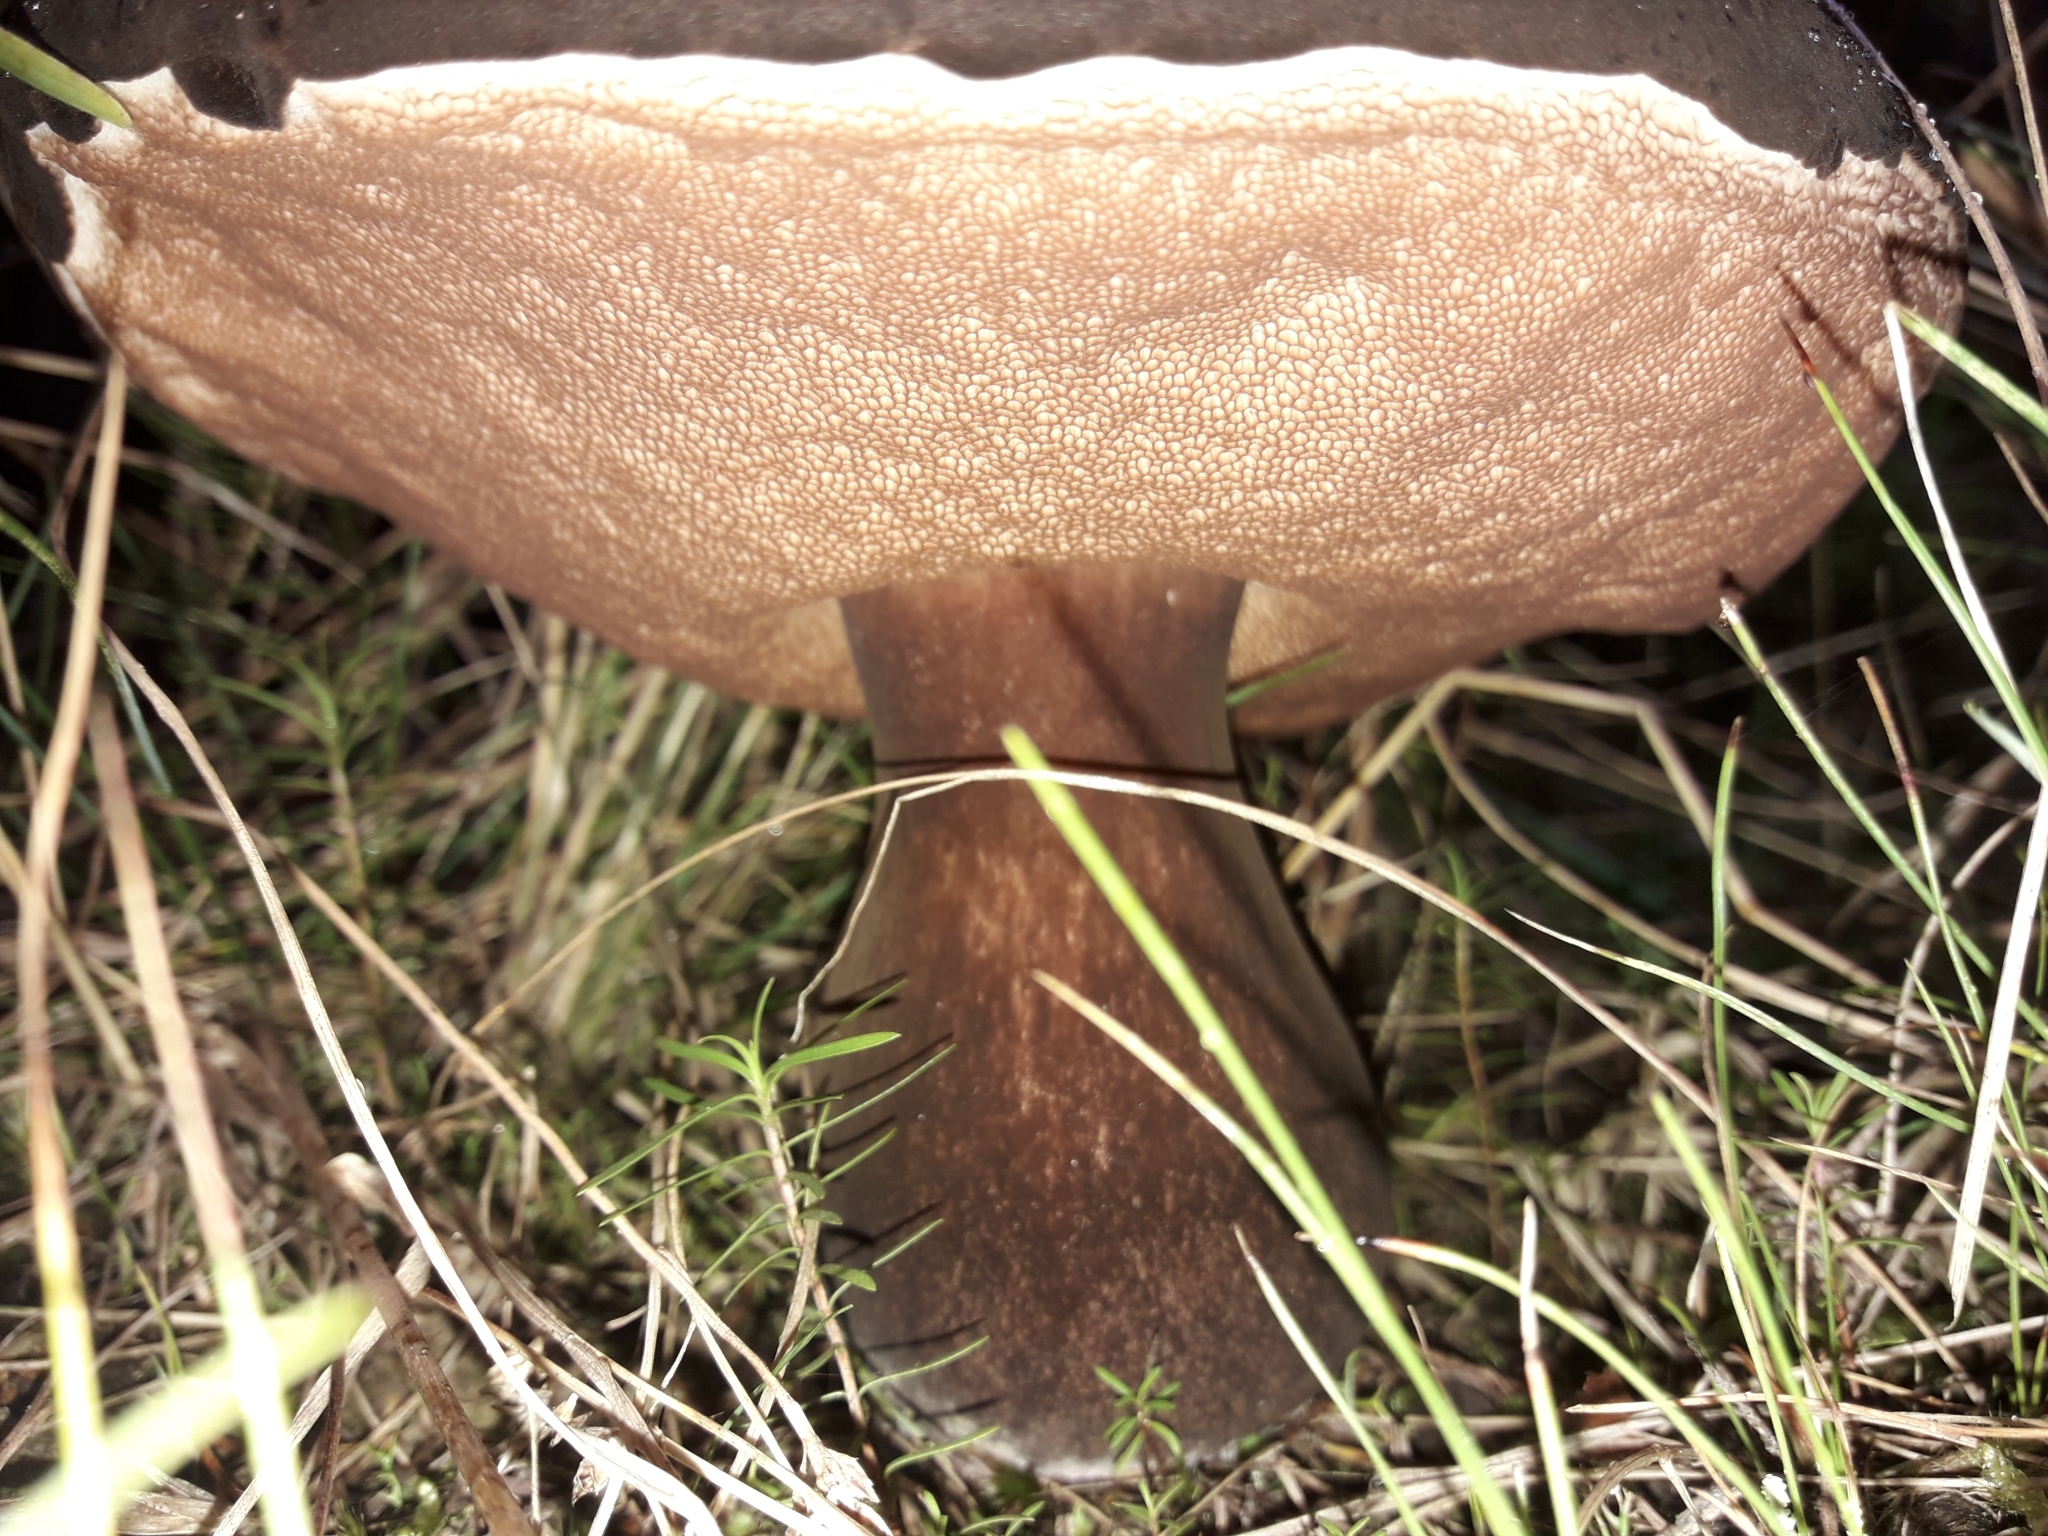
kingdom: Fungi
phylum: Basidiomycota
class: Agaricomycetes
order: Boletales
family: Boletaceae
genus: Porphyrellus
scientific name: Porphyrellus formosus
